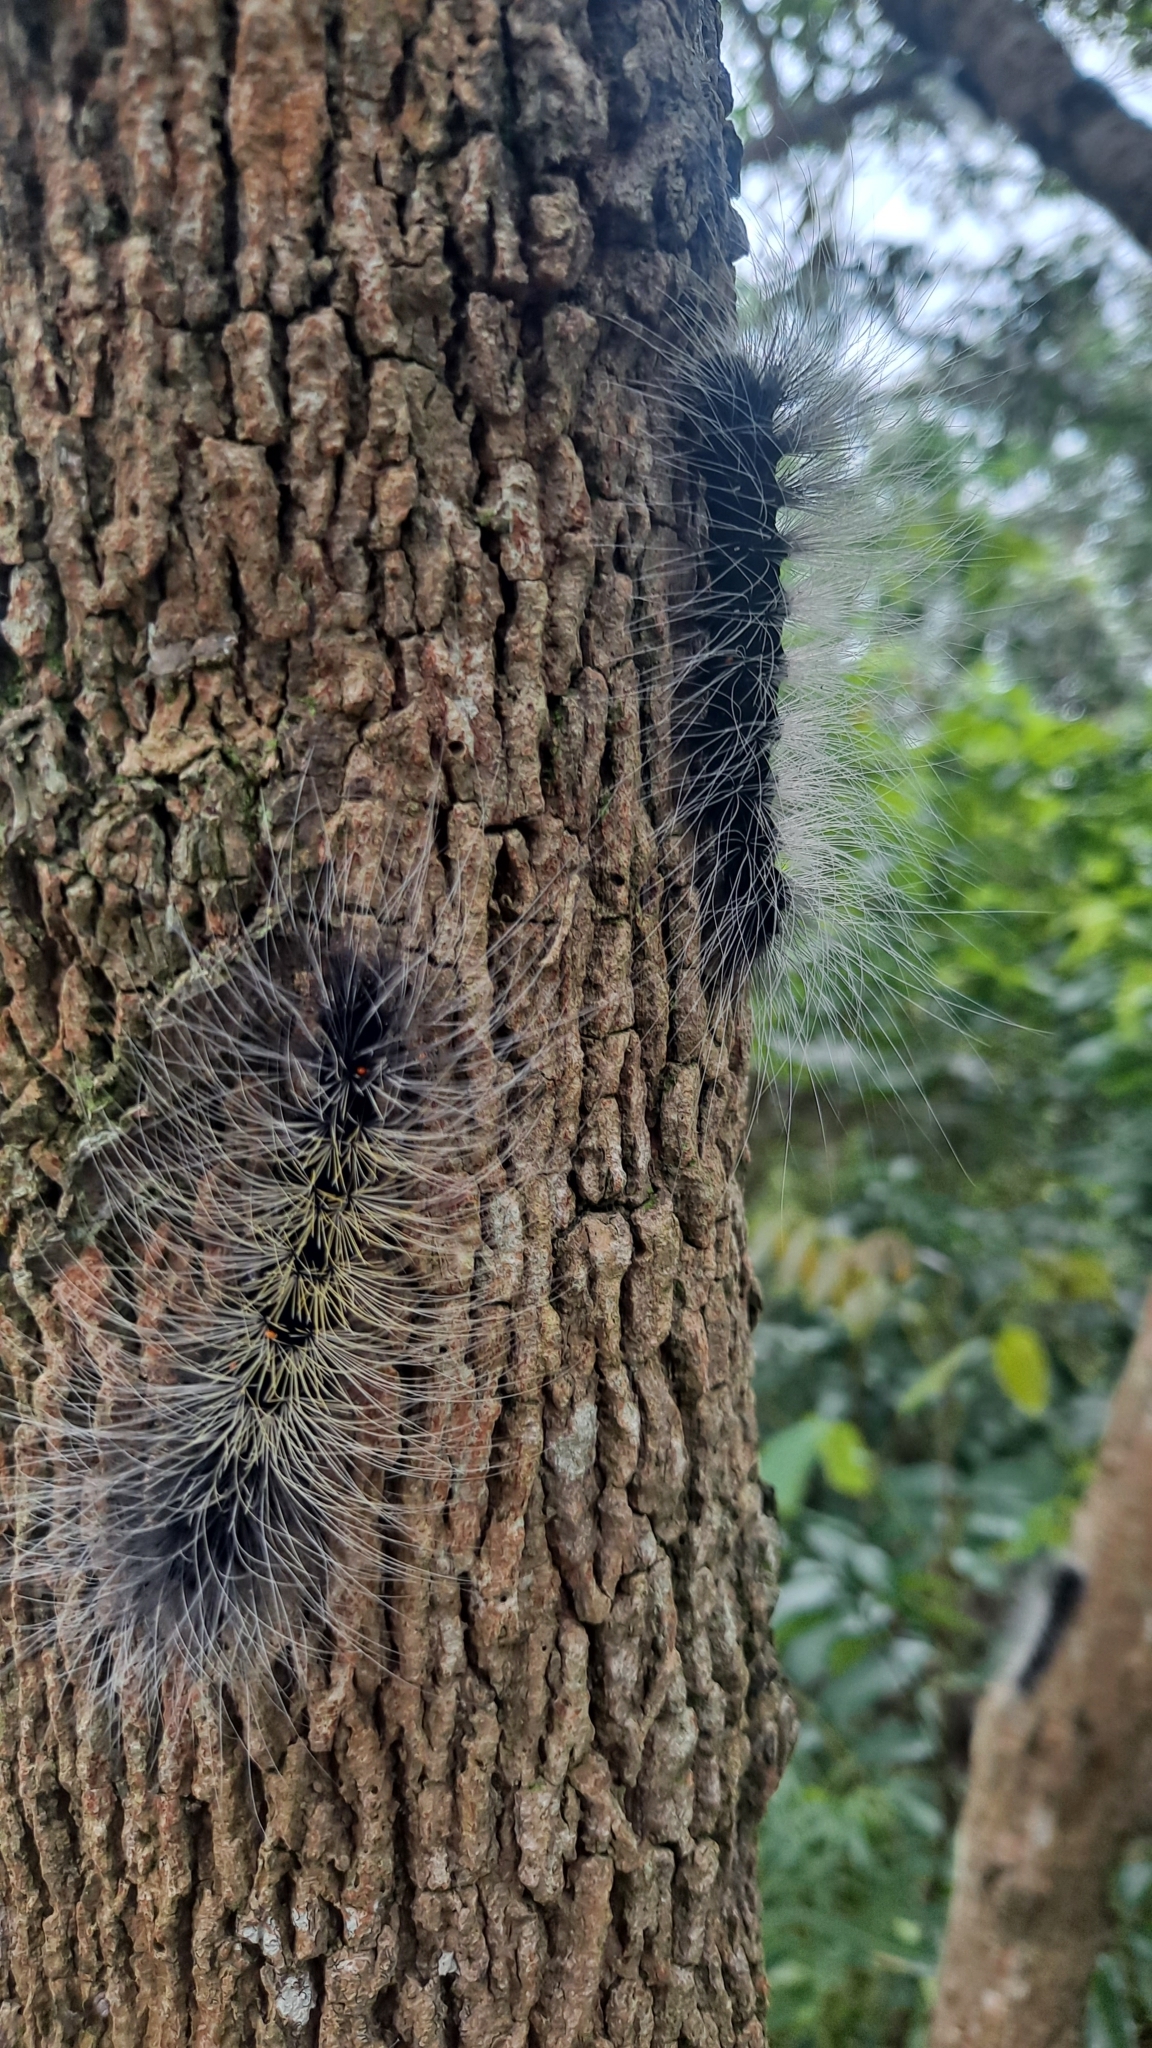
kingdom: Animalia
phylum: Arthropoda
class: Insecta
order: Lepidoptera
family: Erebidae
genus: Macrobrochis
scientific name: Macrobrochis gigas
